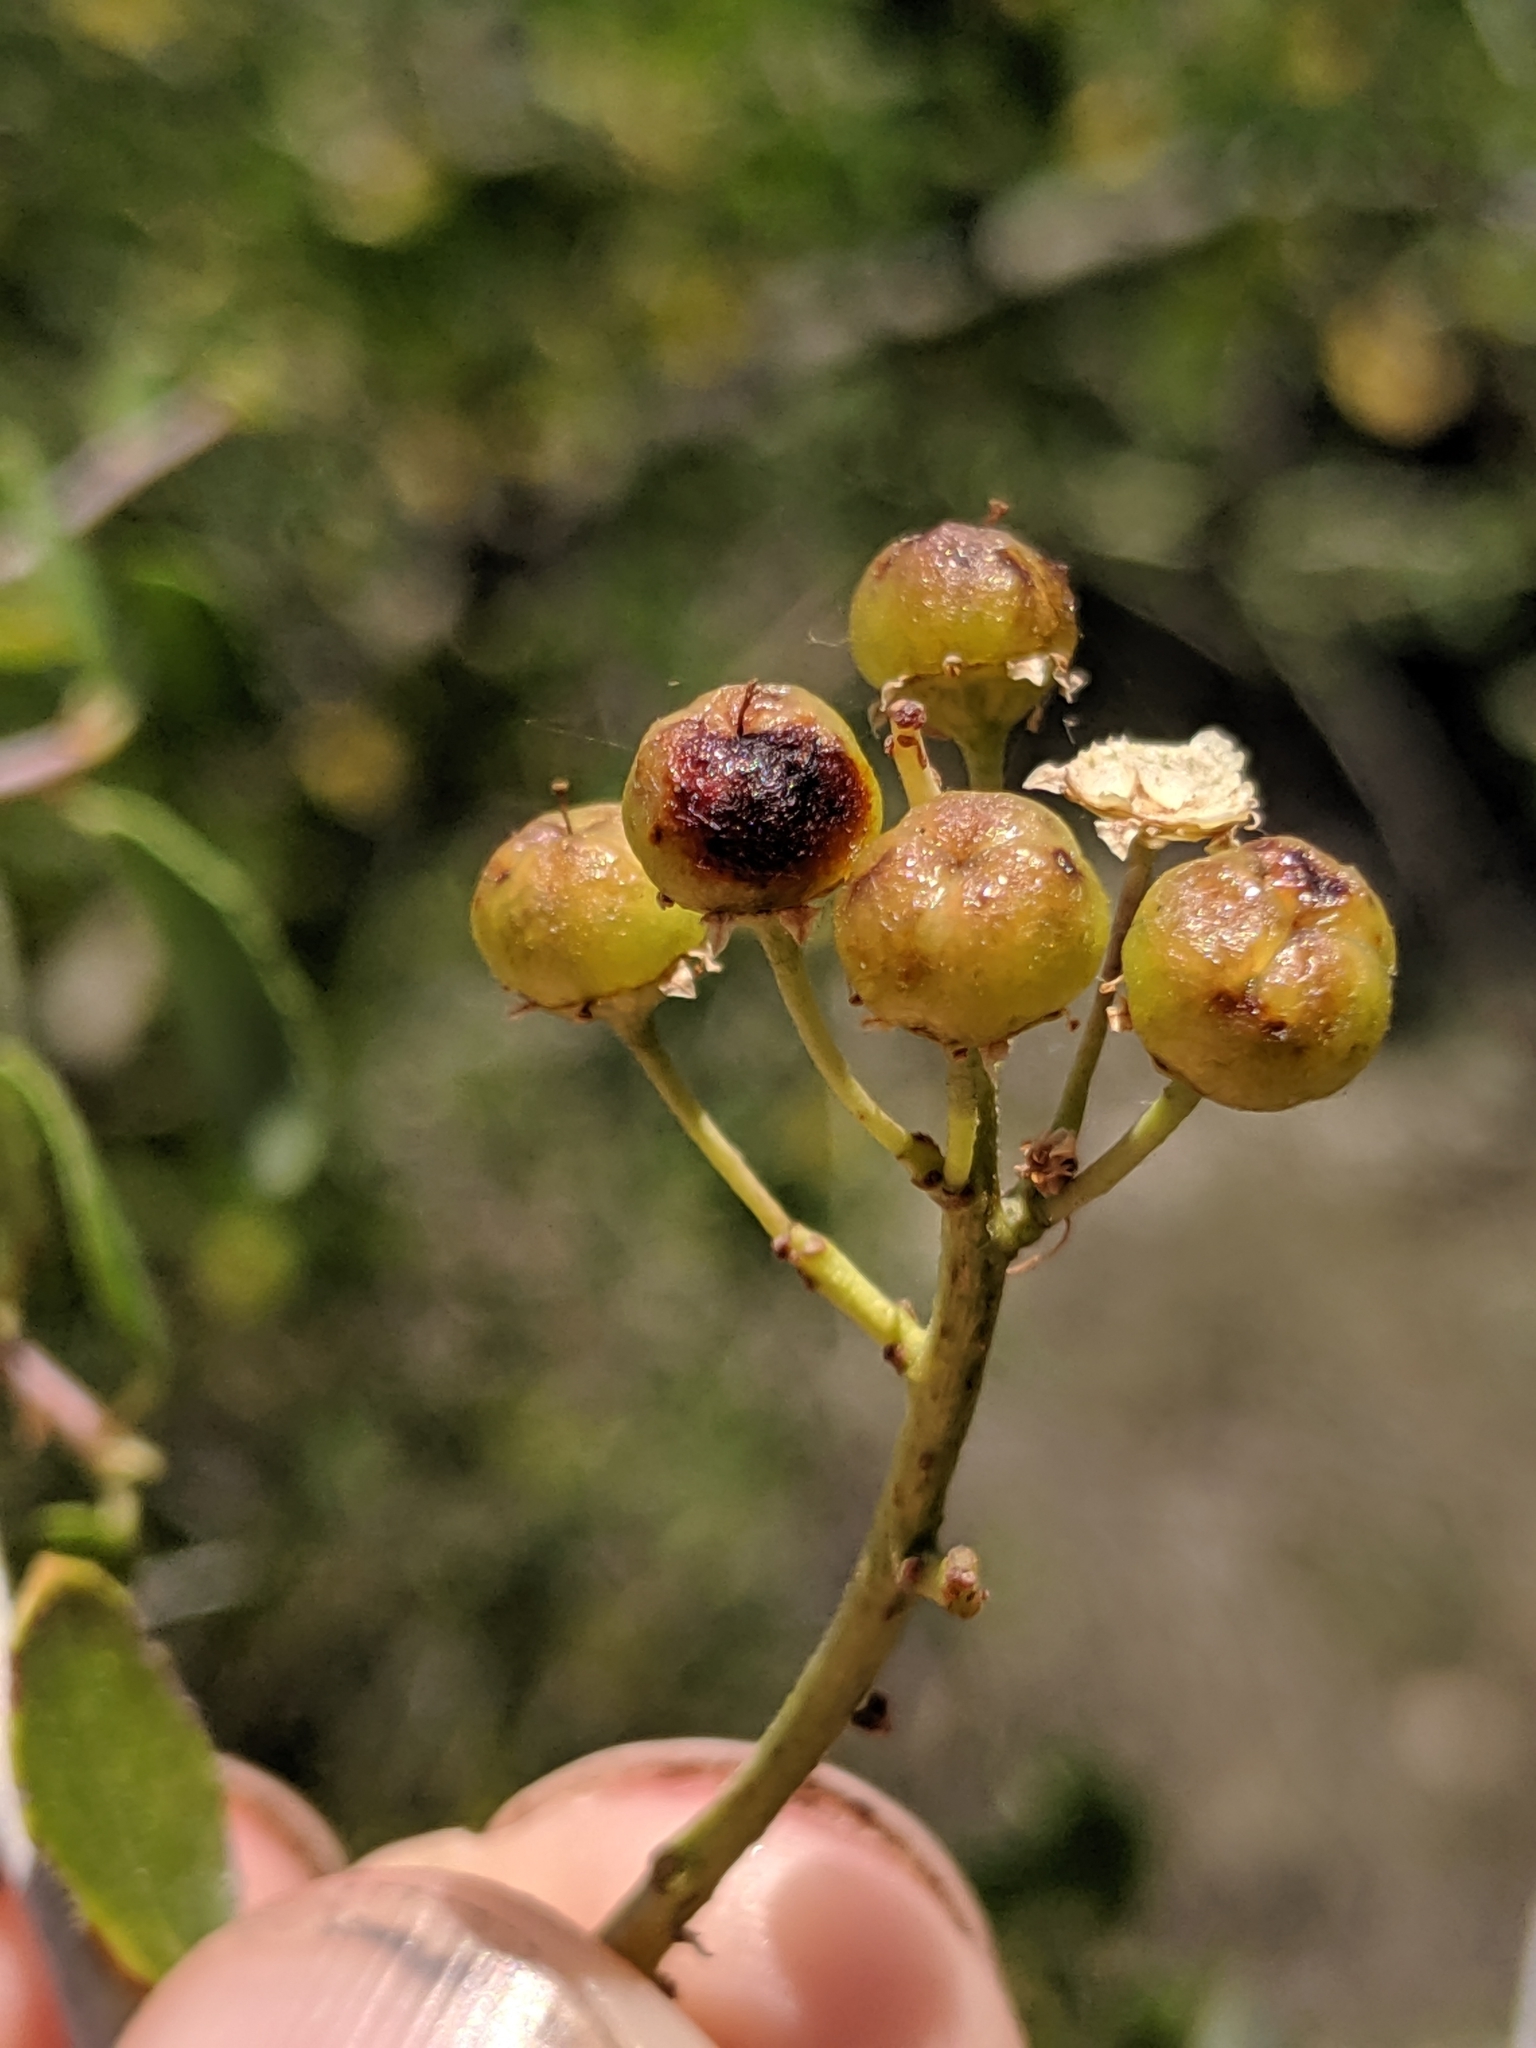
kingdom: Plantae
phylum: Tracheophyta
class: Magnoliopsida
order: Rosales
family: Rhamnaceae
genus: Ceanothus
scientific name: Ceanothus leucodermis
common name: Chaparral whitethorn
